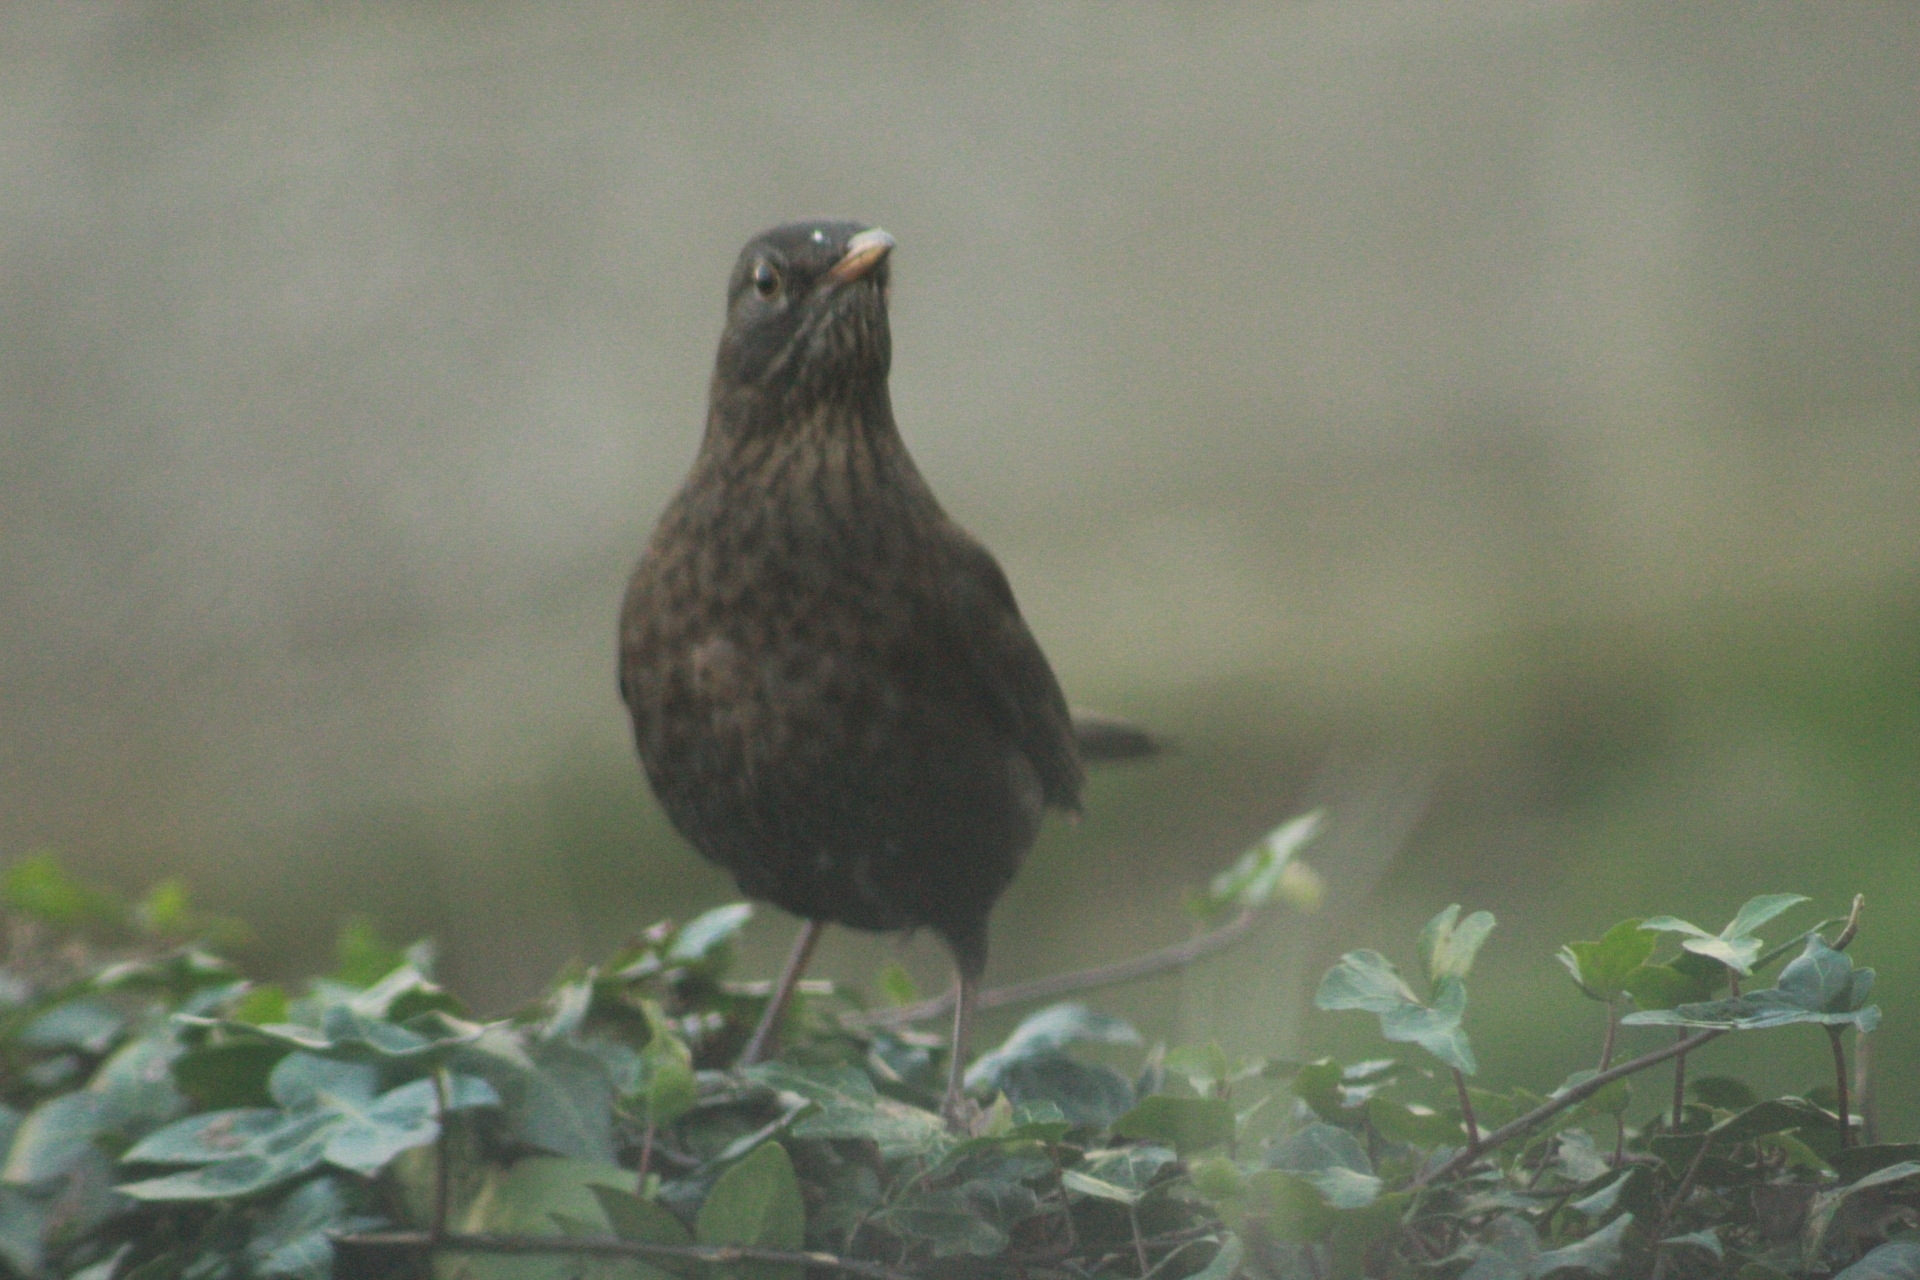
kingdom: Animalia
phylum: Chordata
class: Aves
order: Passeriformes
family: Turdidae
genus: Turdus
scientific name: Turdus merula
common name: Common blackbird
